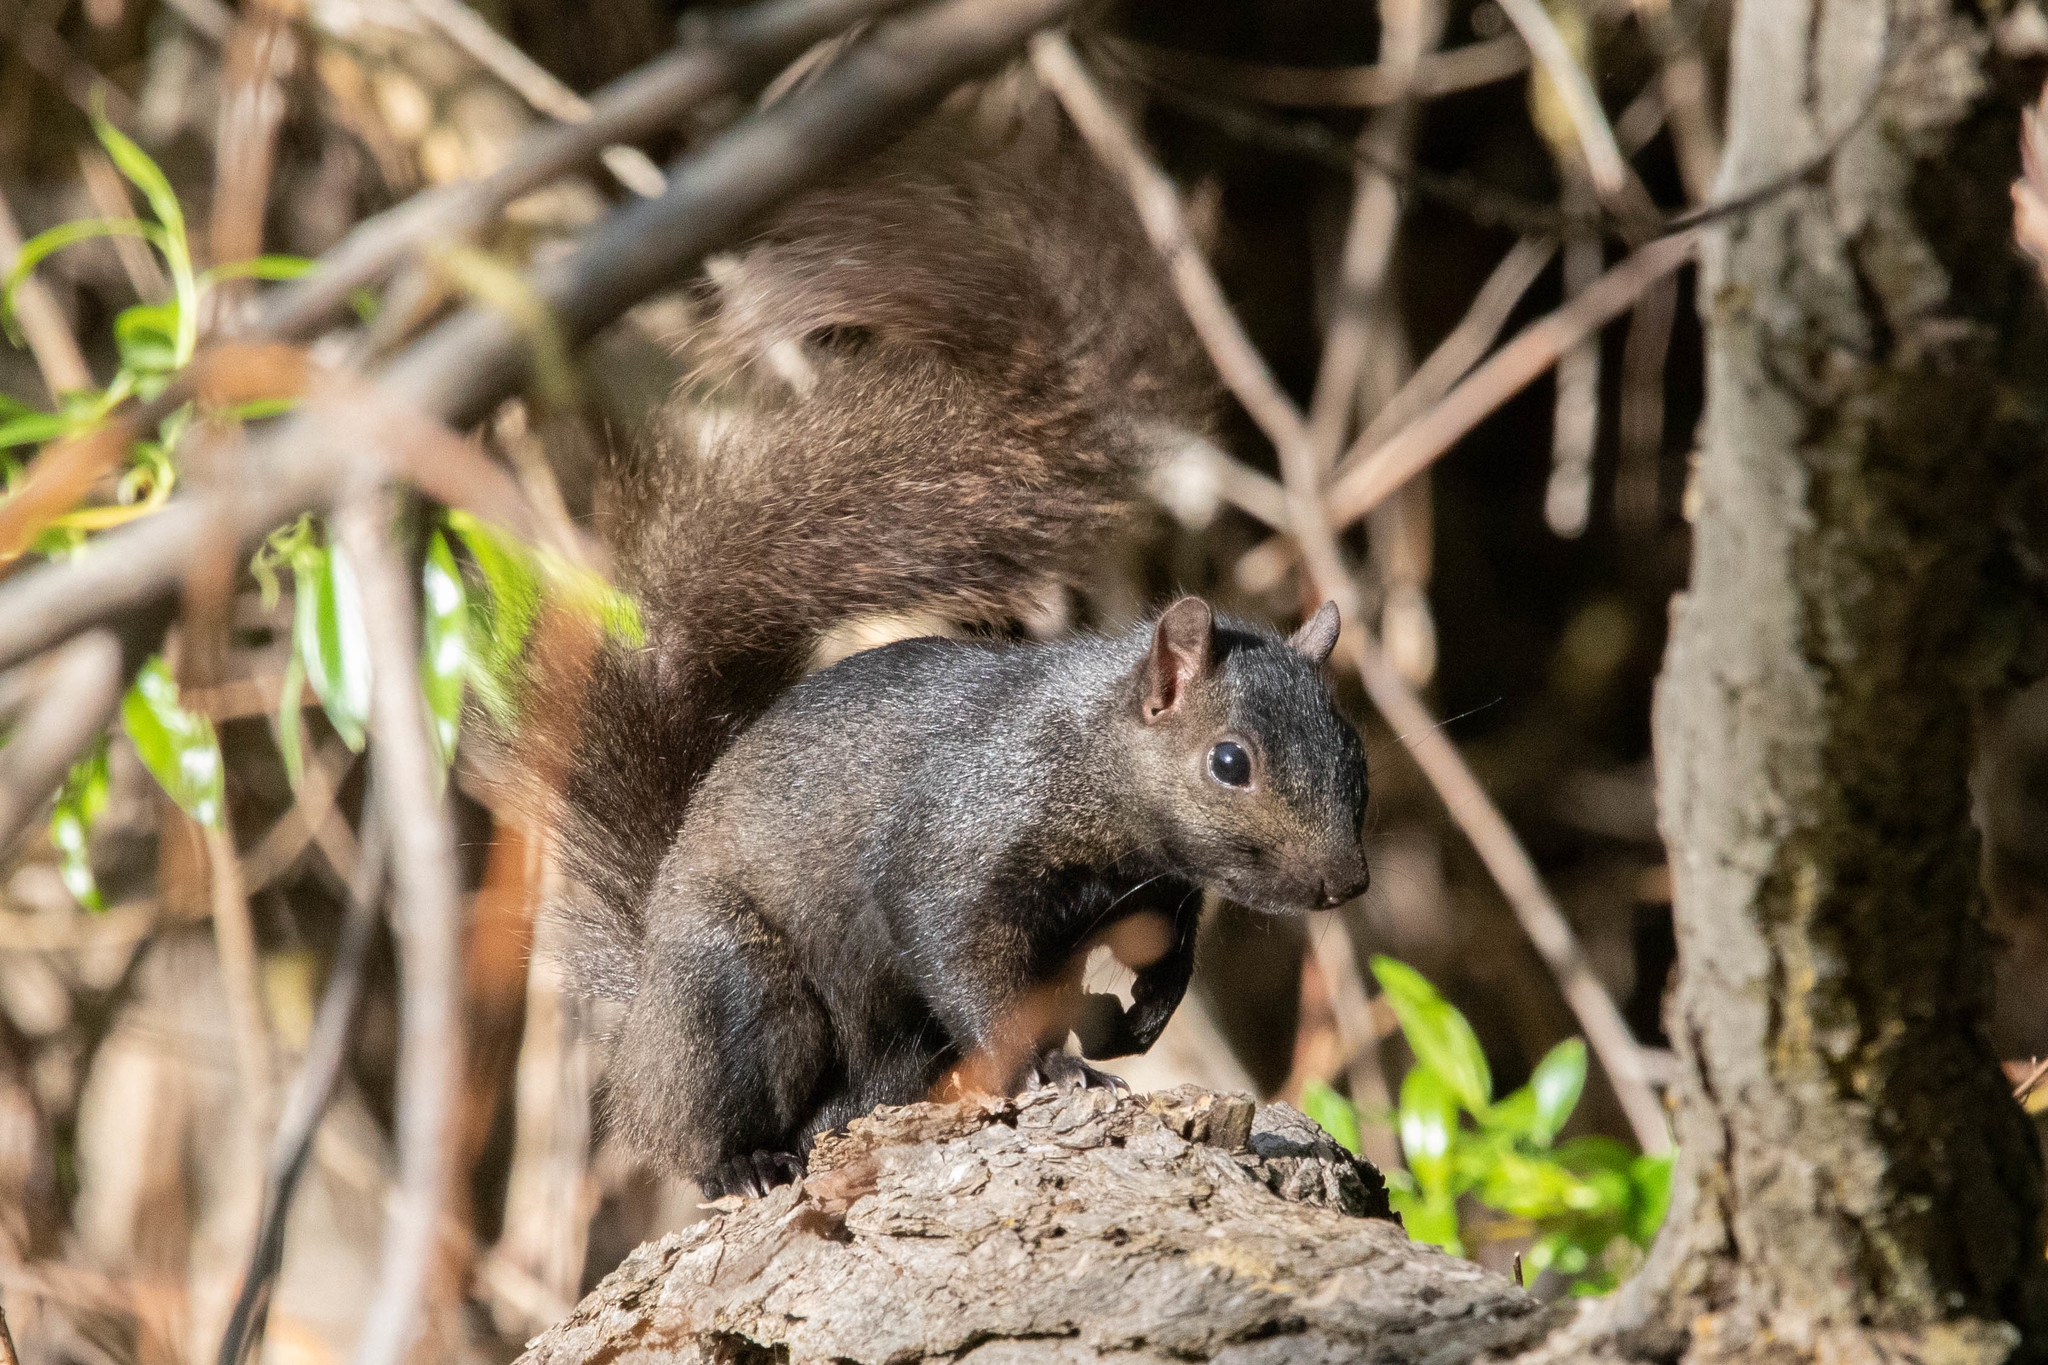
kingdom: Animalia
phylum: Chordata
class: Mammalia
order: Rodentia
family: Sciuridae
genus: Sciurus
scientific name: Sciurus carolinensis
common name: Eastern gray squirrel
